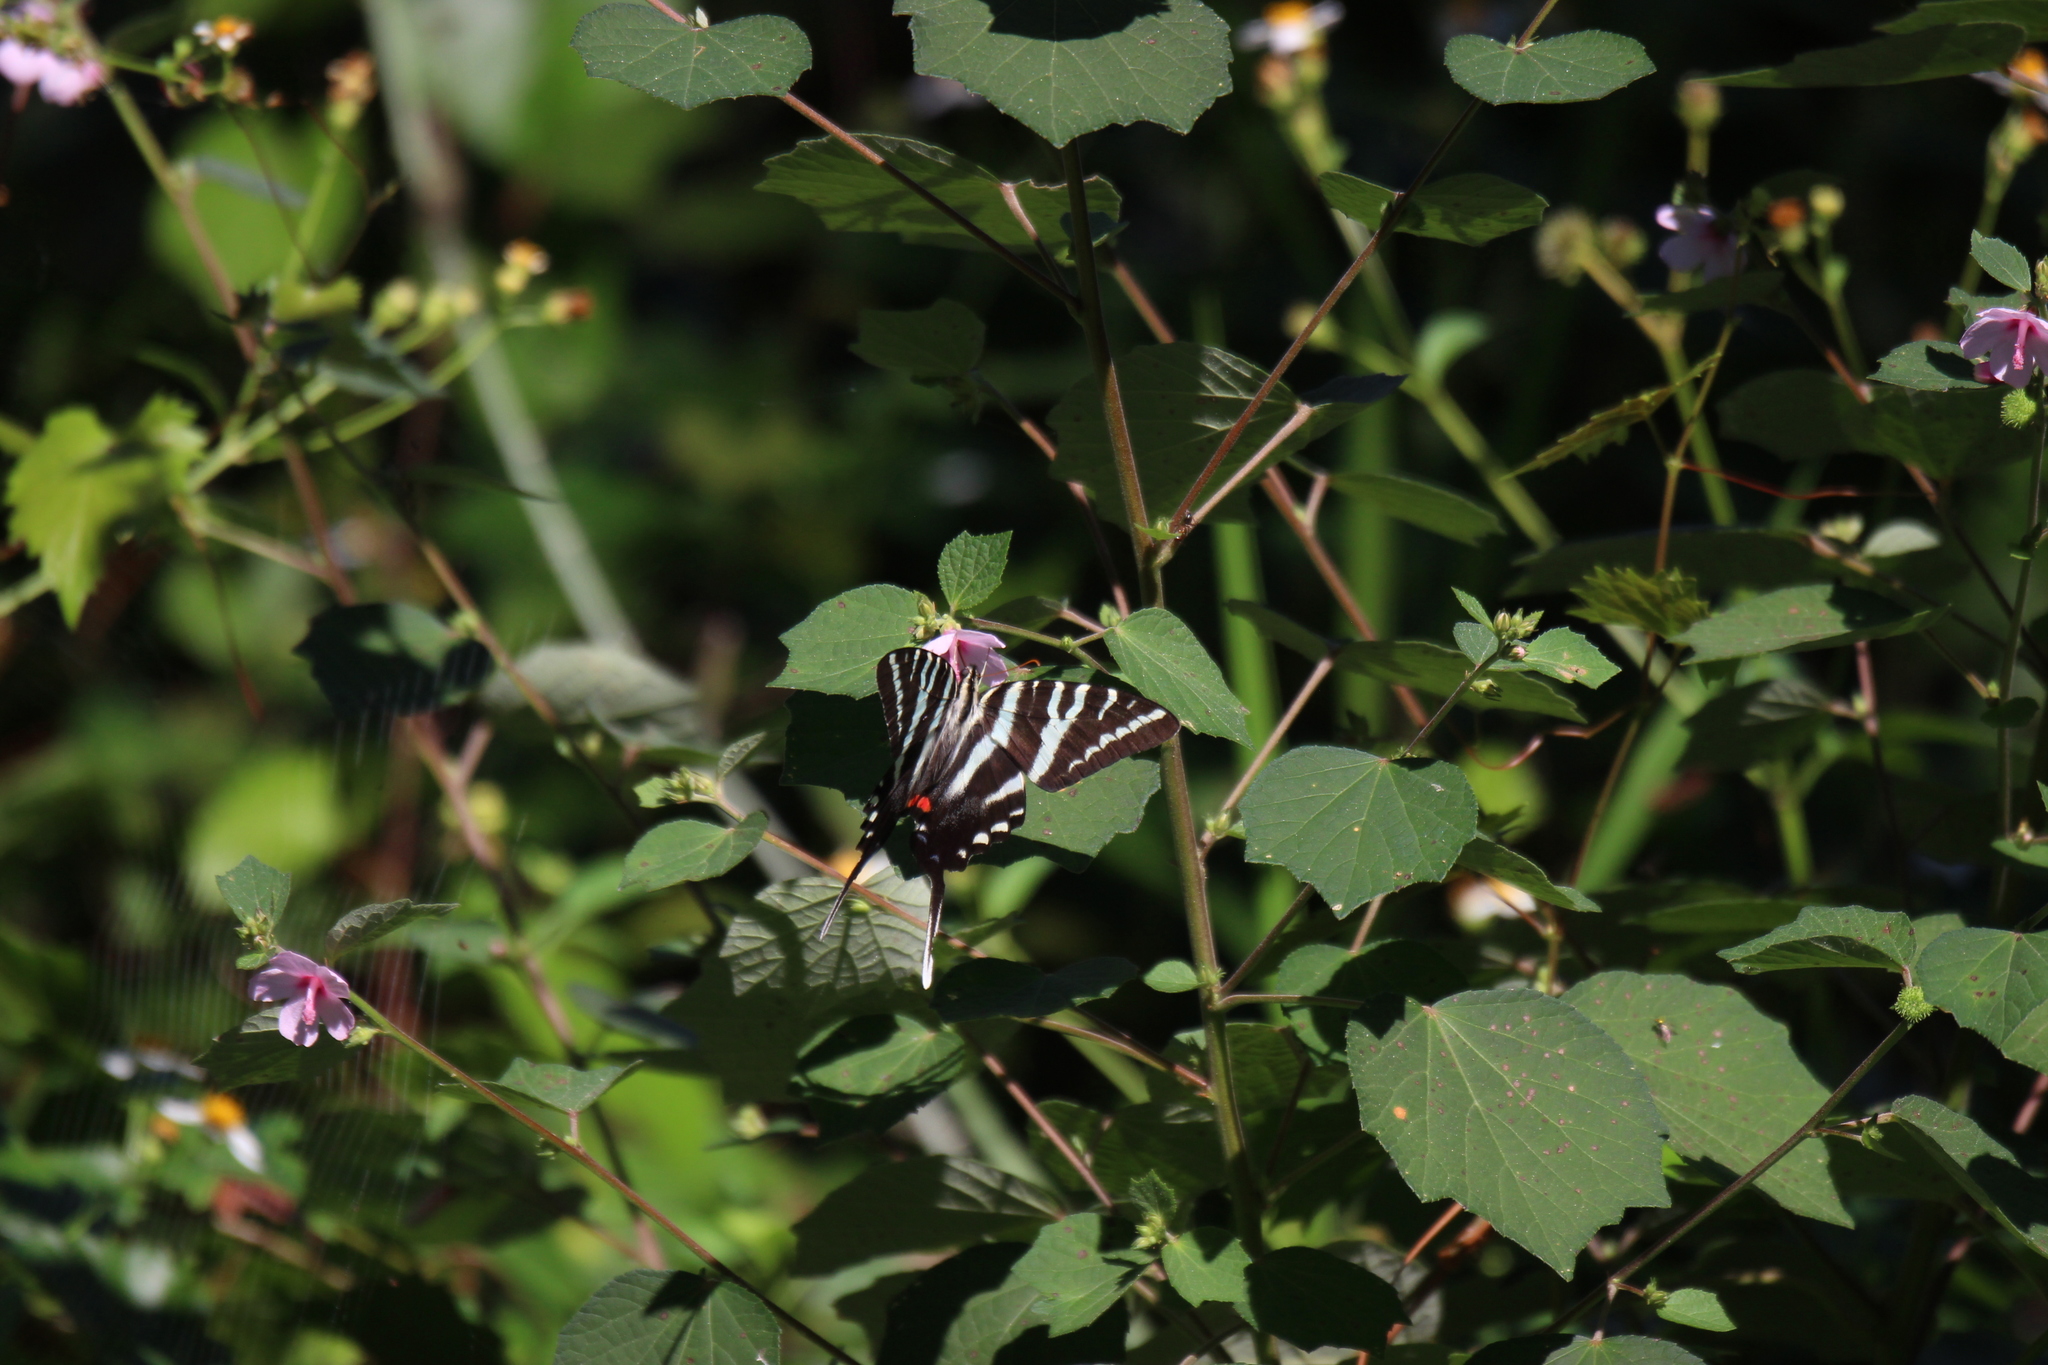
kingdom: Animalia
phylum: Arthropoda
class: Insecta
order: Lepidoptera
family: Papilionidae
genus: Protographium
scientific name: Protographium marcellus
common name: Zebra swallowtail
